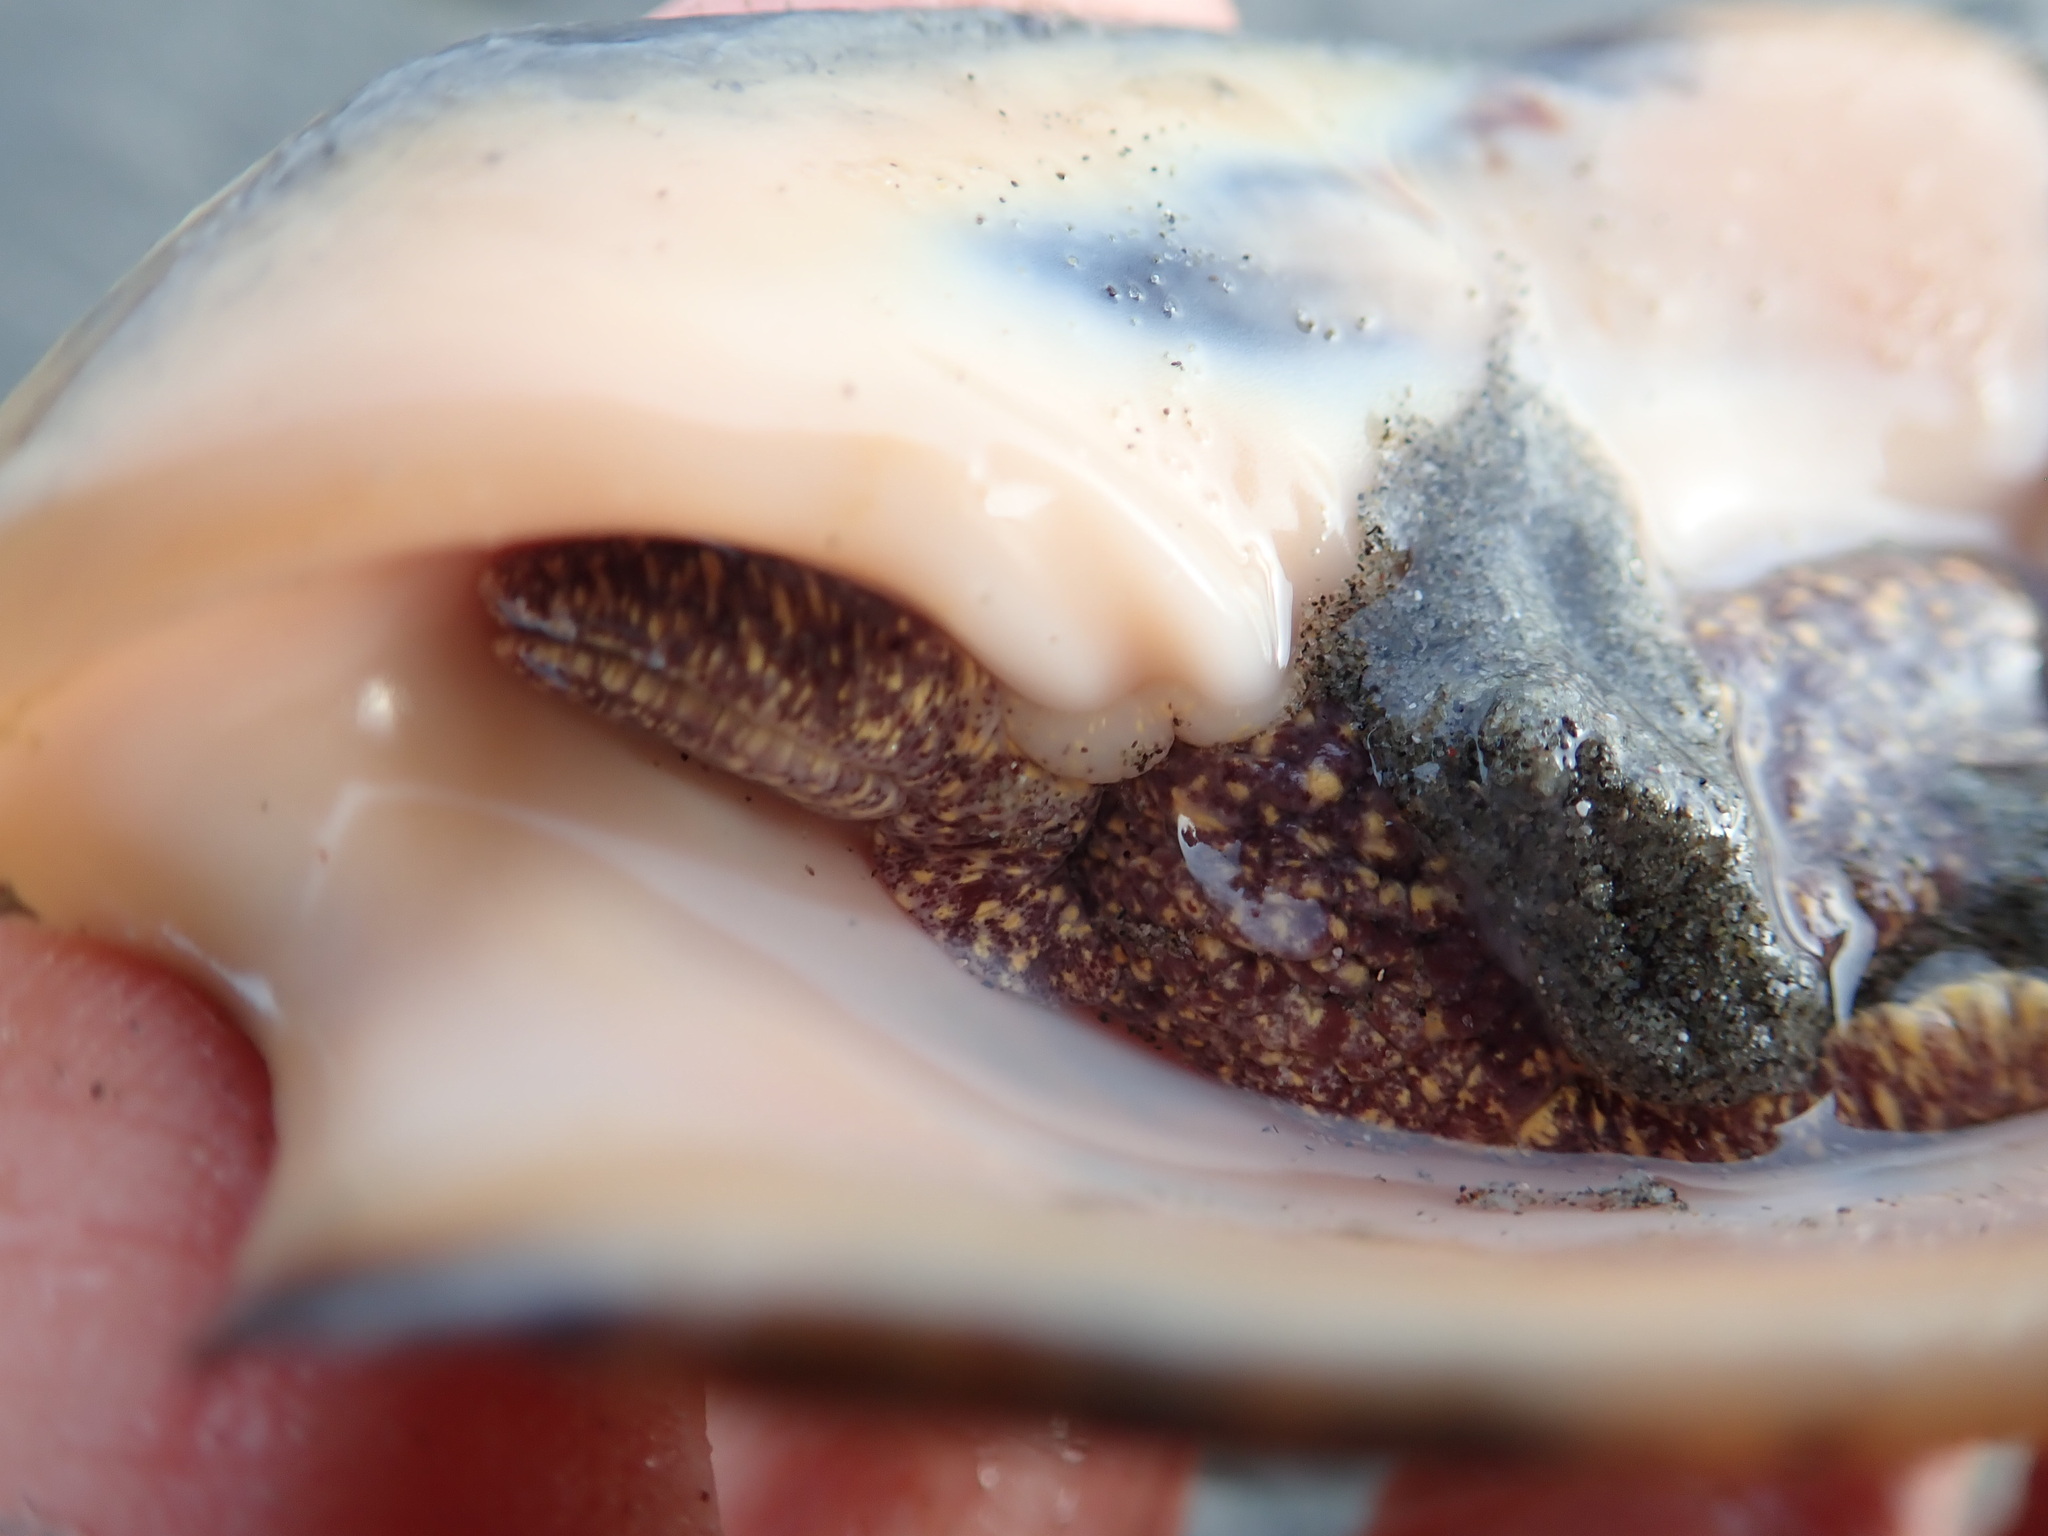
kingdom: Animalia
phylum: Mollusca
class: Gastropoda
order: Neogastropoda
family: Volutidae
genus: Alcithoe
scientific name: Alcithoe arabica
